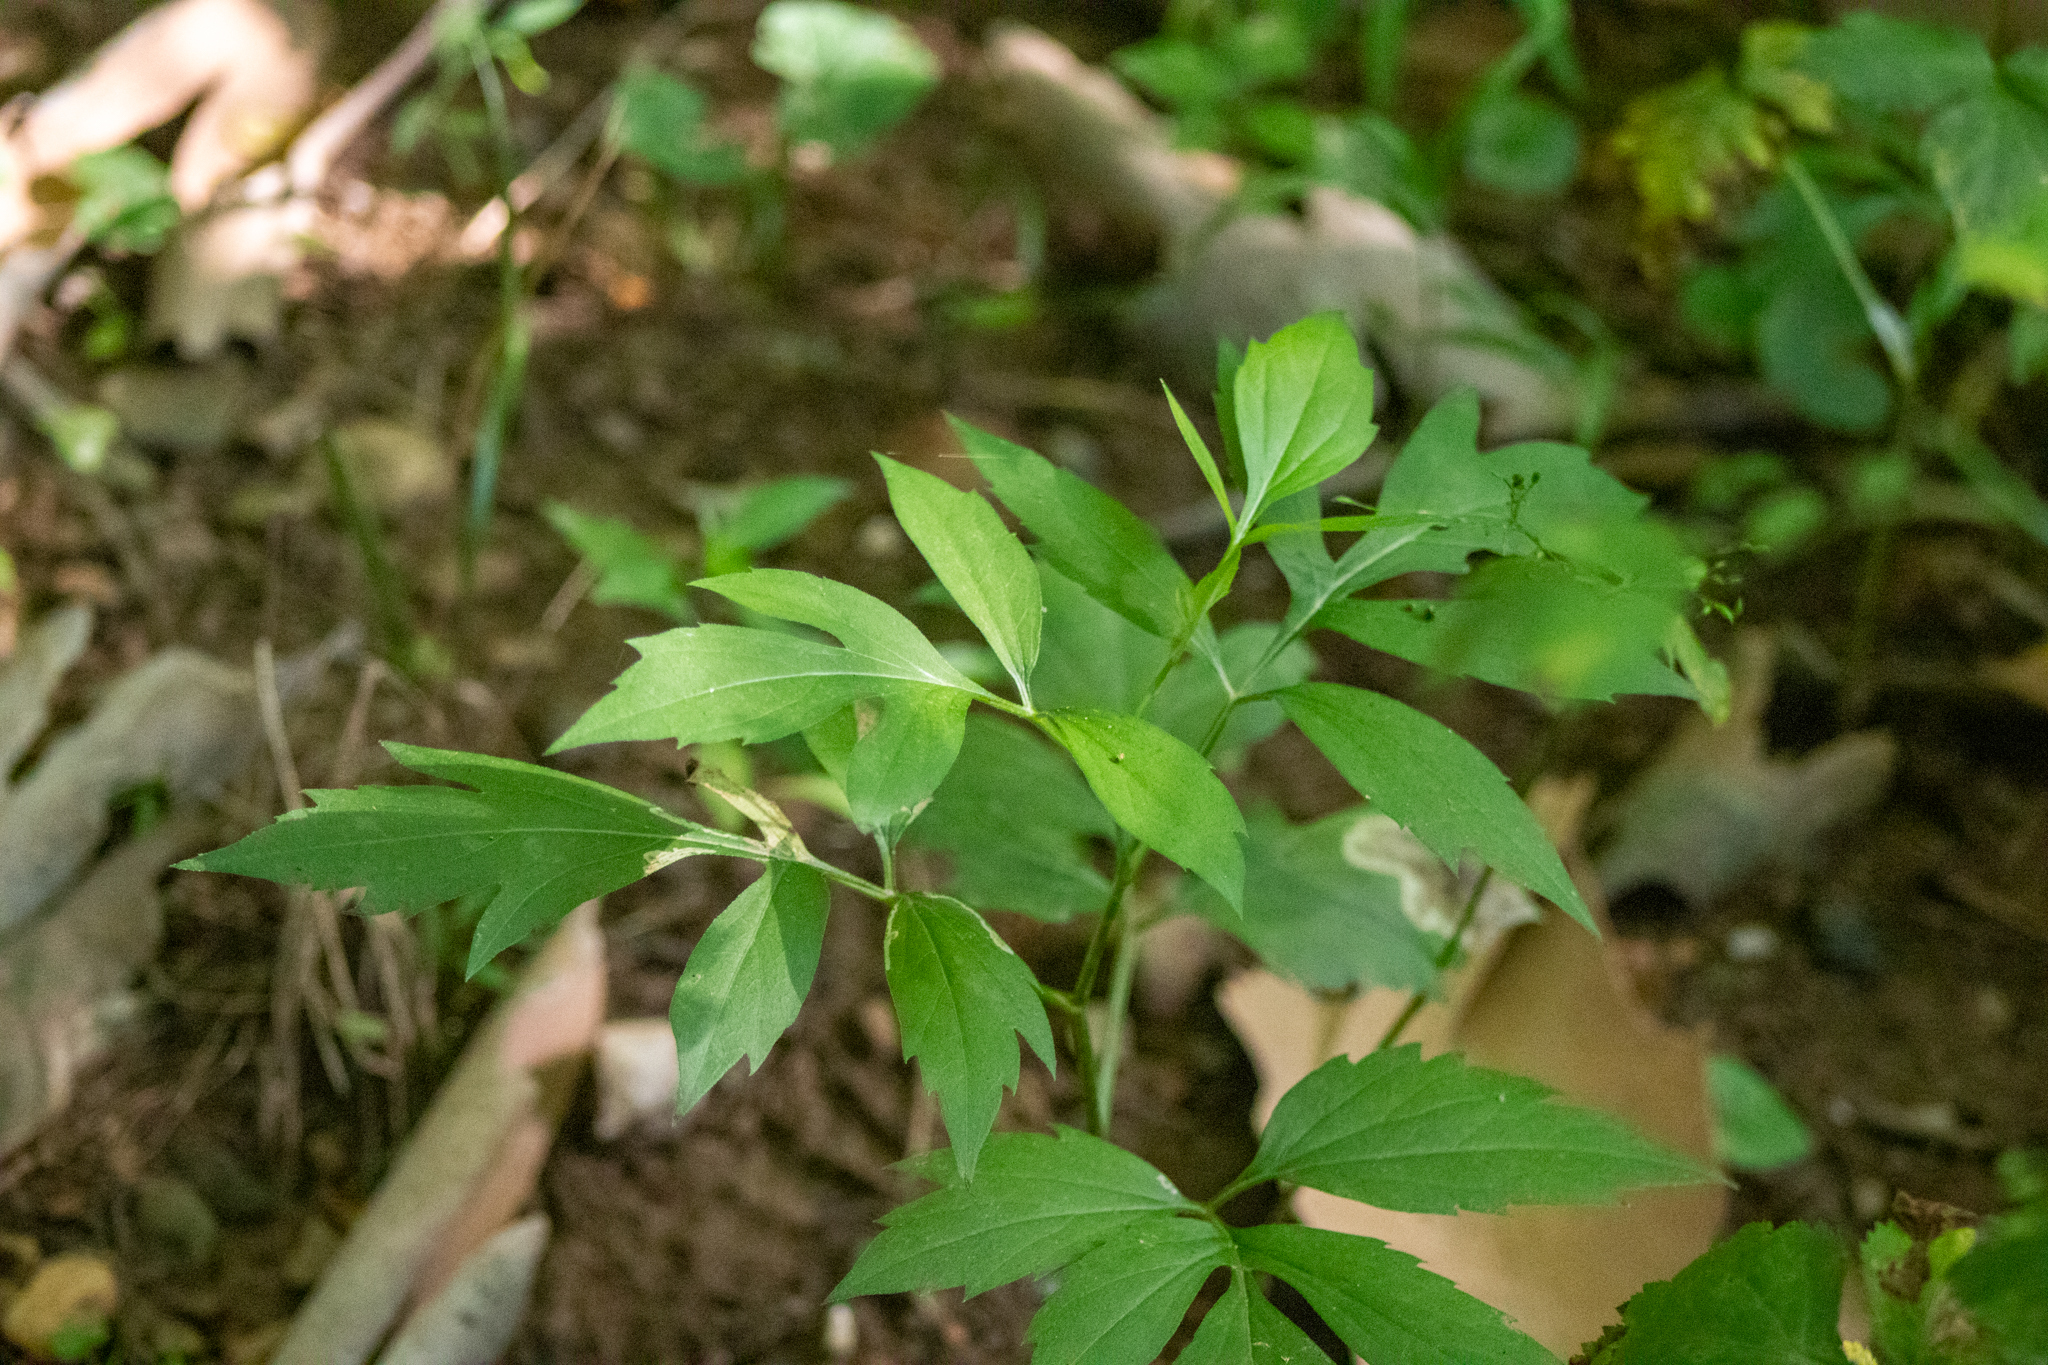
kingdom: Plantae
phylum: Tracheophyta
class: Magnoliopsida
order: Asterales
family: Asteraceae
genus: Rudbeckia
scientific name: Rudbeckia laciniata
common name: Coneflower
